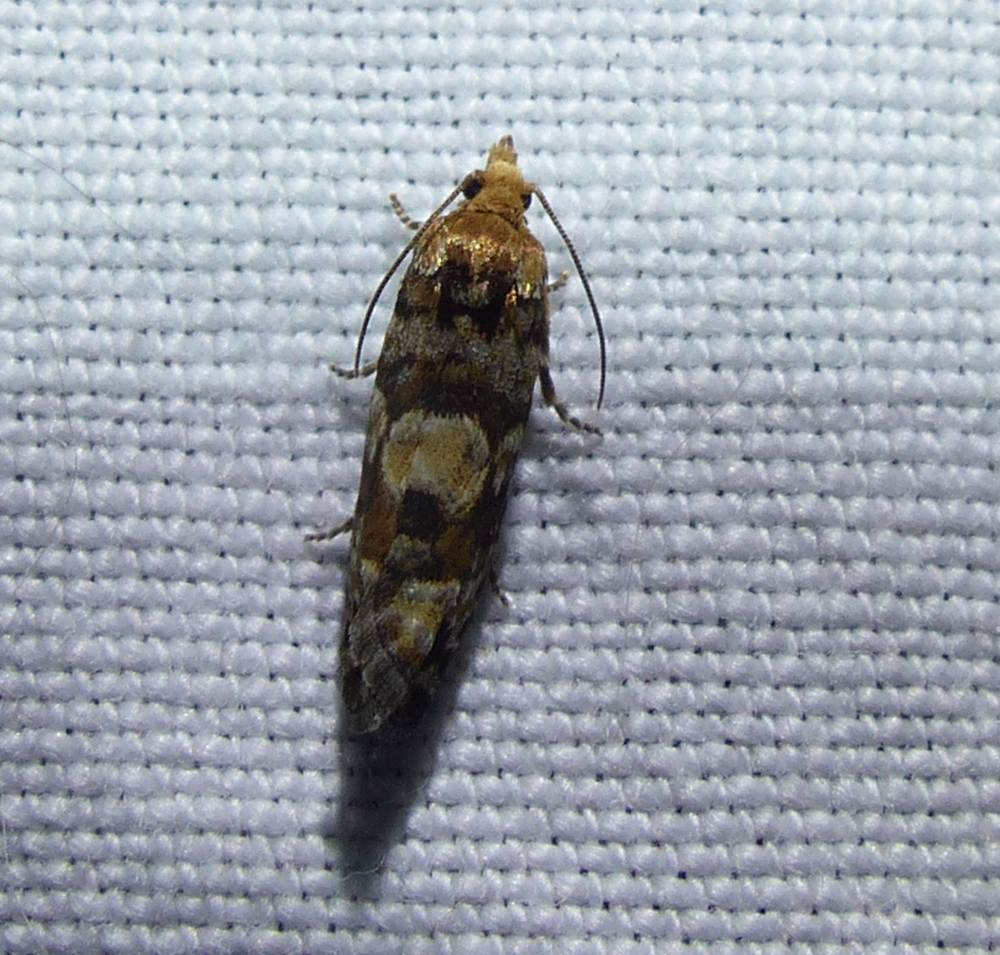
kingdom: Animalia
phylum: Arthropoda
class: Insecta
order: Lepidoptera
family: Tortricidae
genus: Eucopina
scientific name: Eucopina tocullionana
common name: White pinecone borer moth
